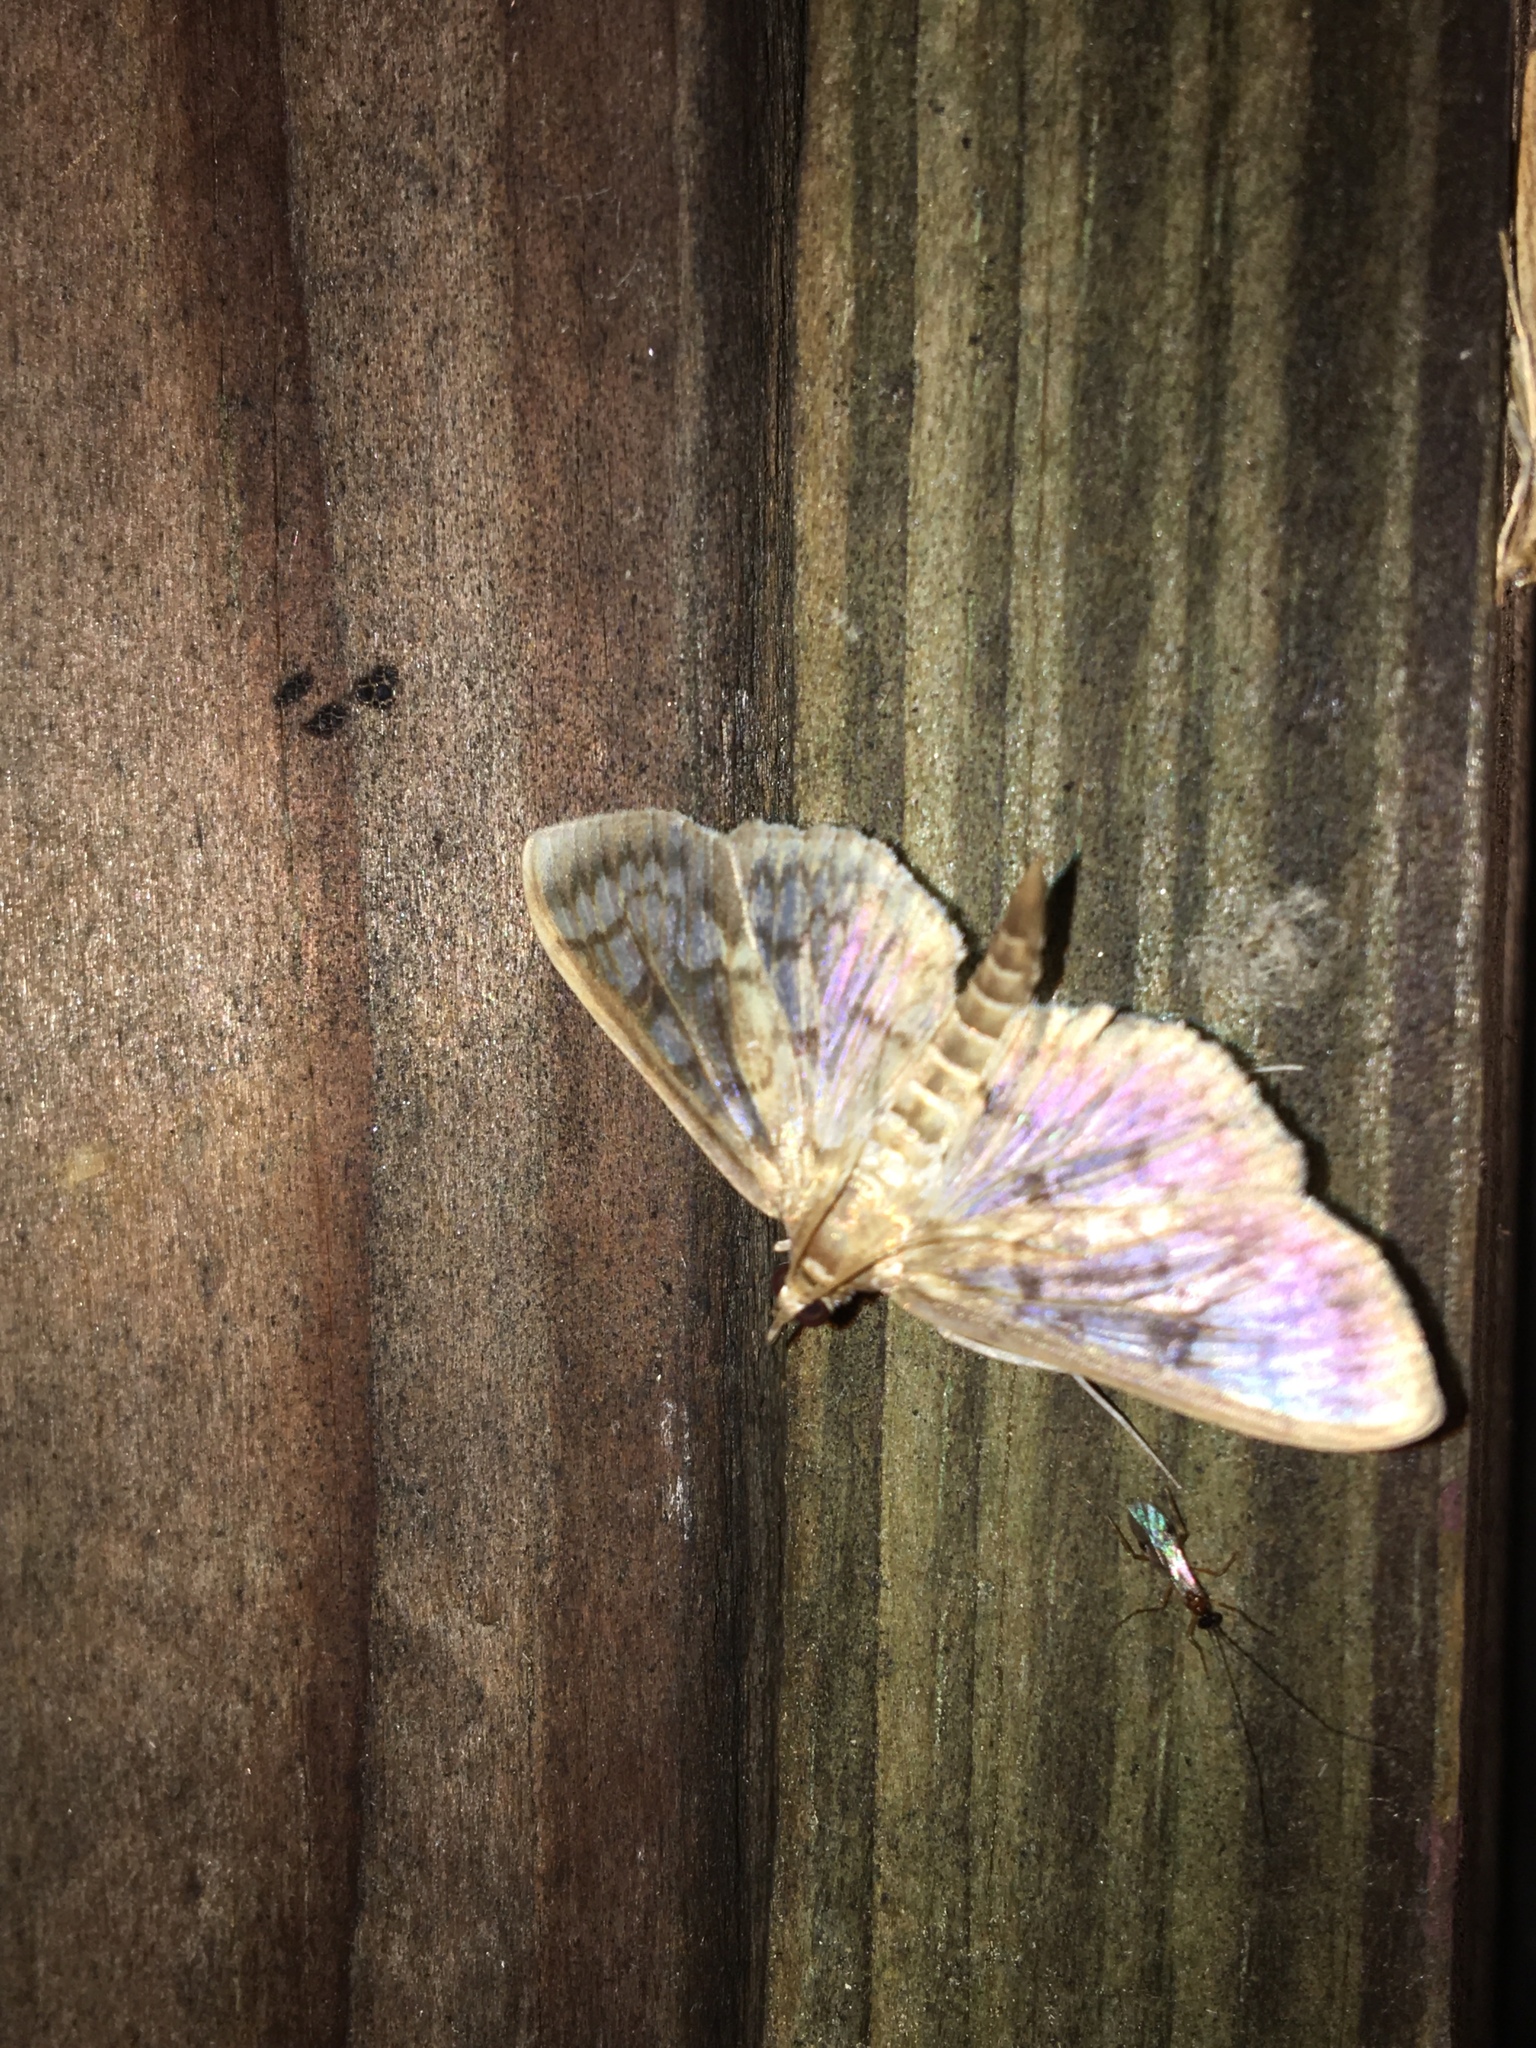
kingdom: Animalia
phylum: Arthropoda
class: Insecta
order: Lepidoptera
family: Crambidae
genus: Herpetogramma
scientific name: Herpetogramma pertextalis
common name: Bold-feathered grass moth
